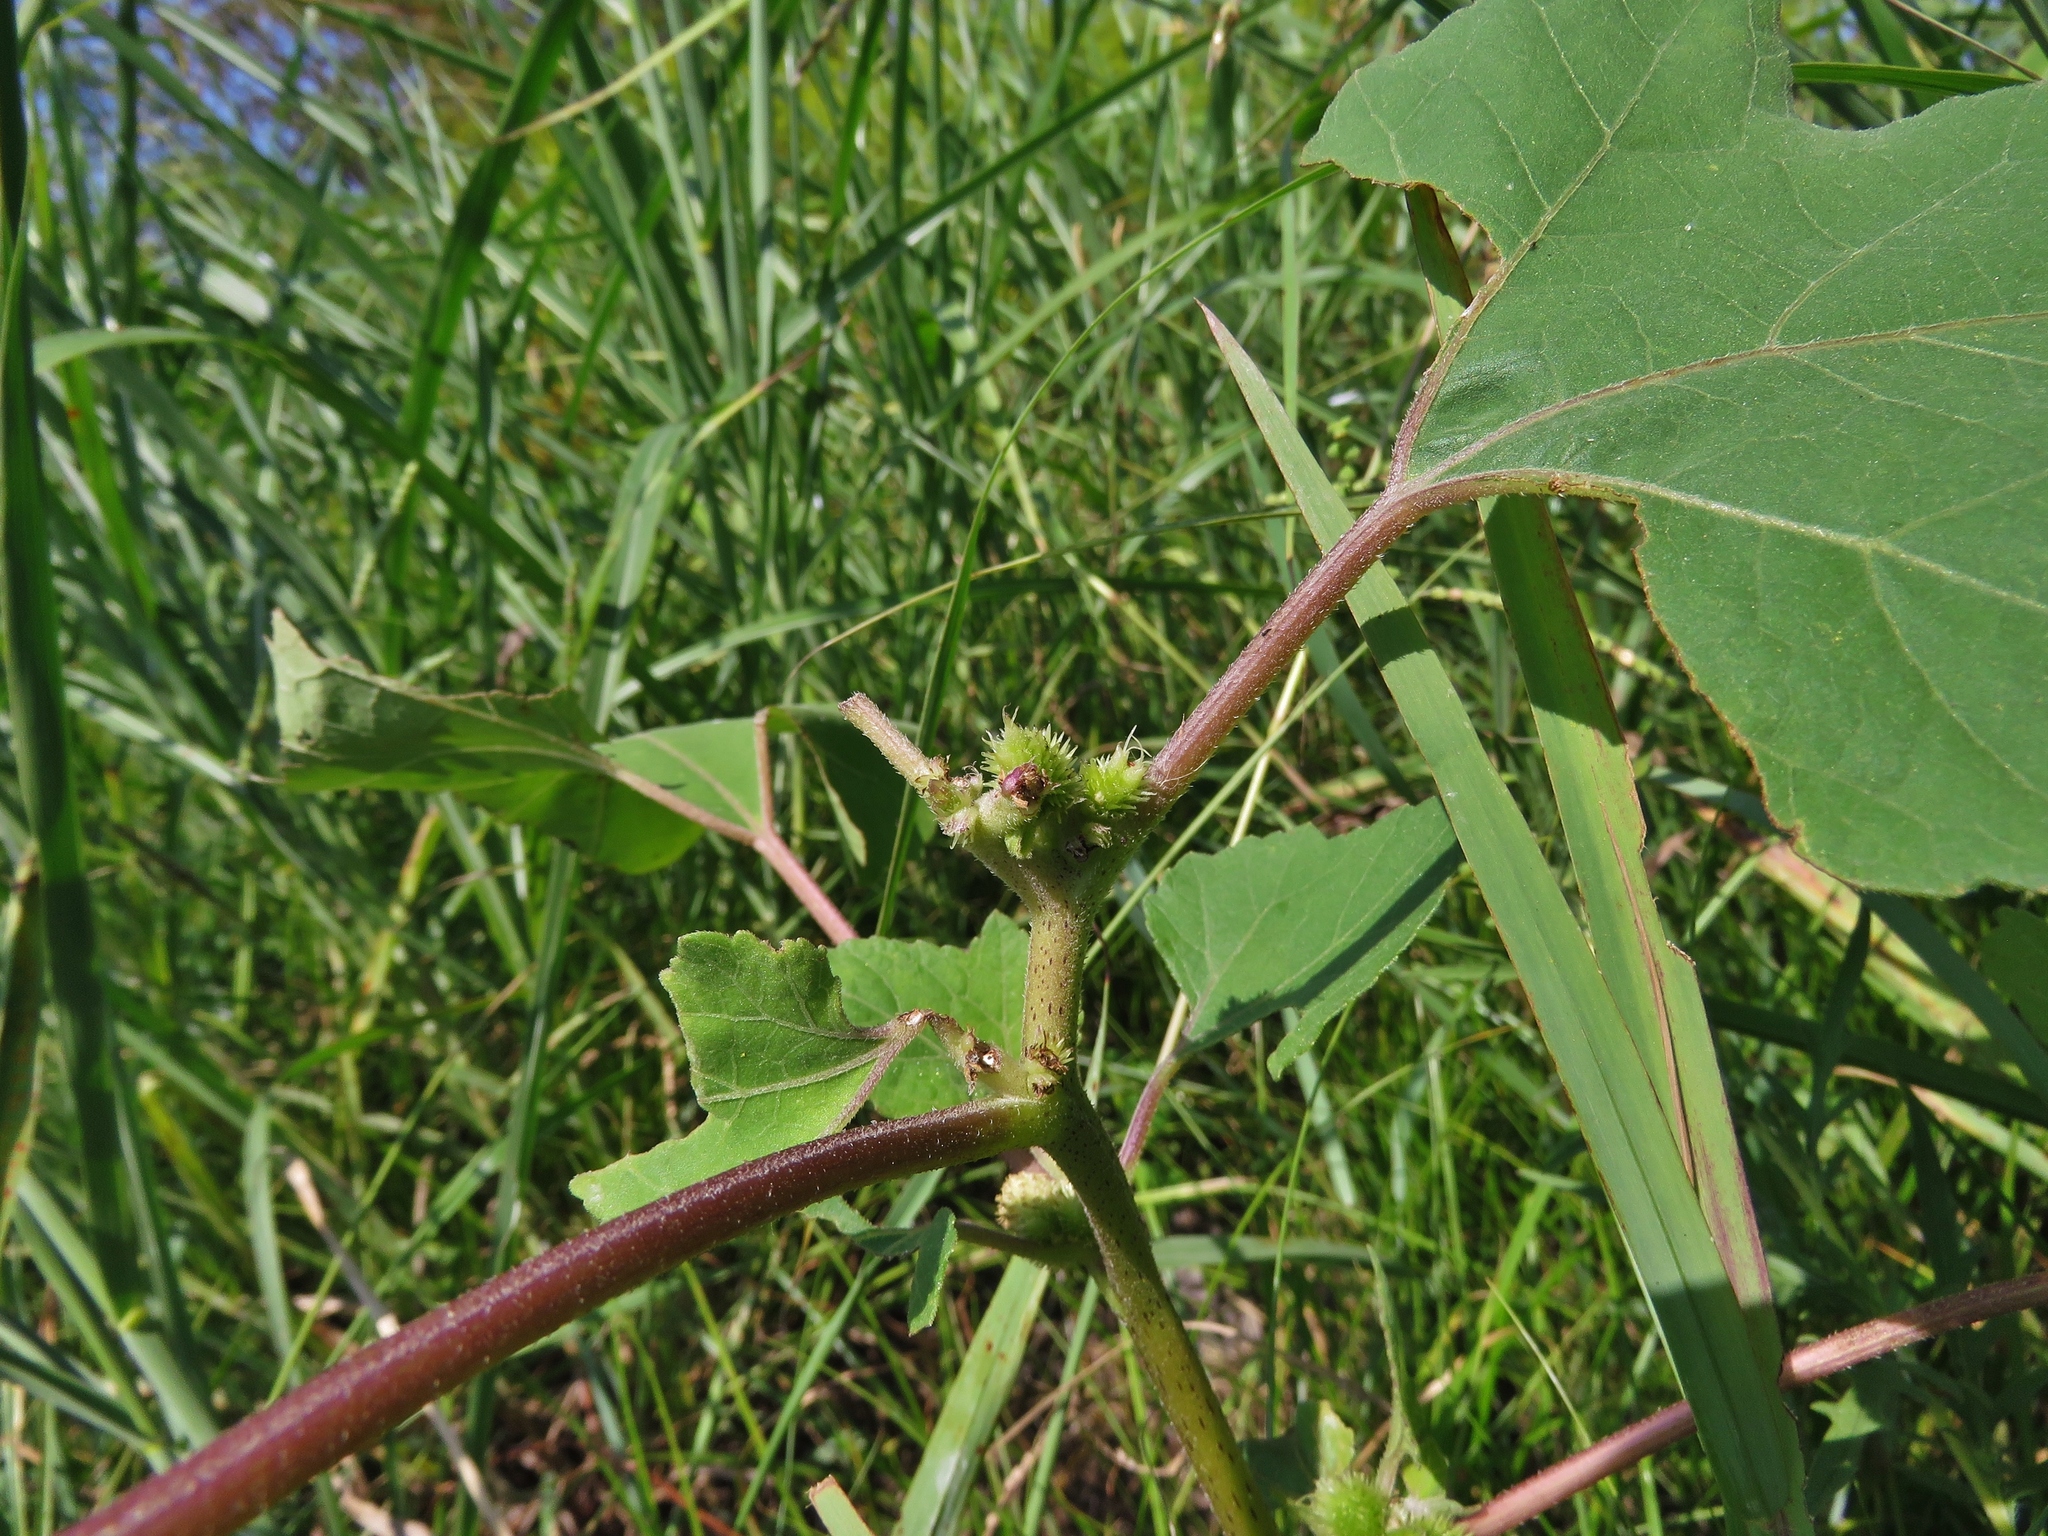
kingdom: Plantae
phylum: Tracheophyta
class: Magnoliopsida
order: Asterales
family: Asteraceae
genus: Xanthium
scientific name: Xanthium strumarium
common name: Rough cocklebur
